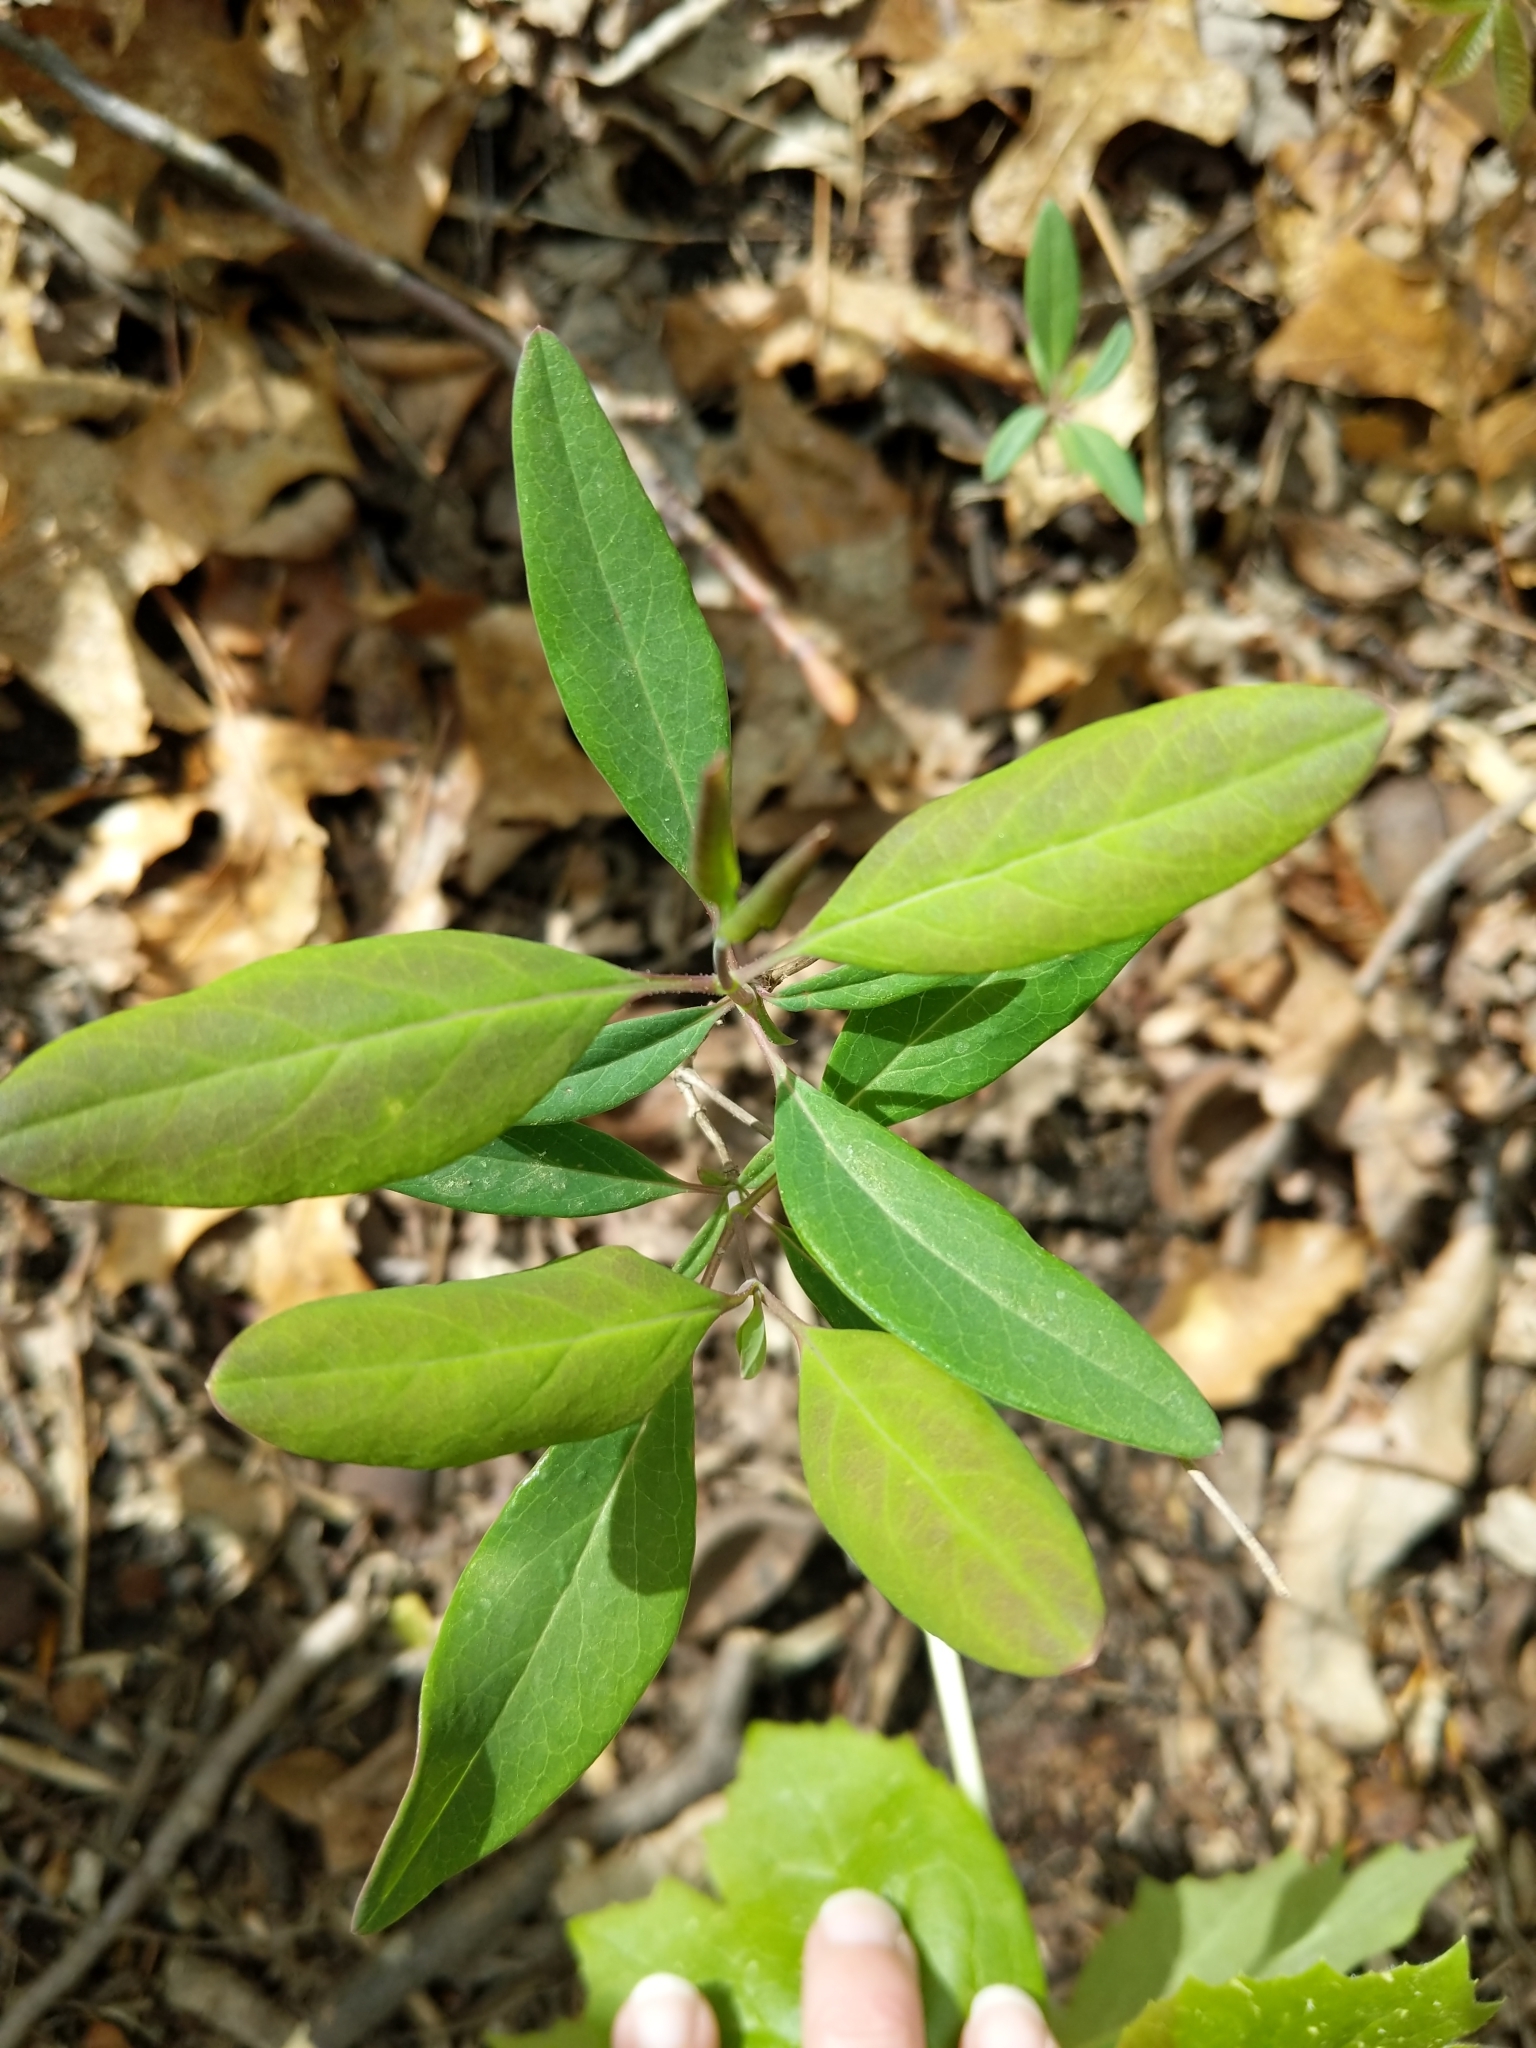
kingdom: Plantae
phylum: Tracheophyta
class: Magnoliopsida
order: Dipsacales
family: Caprifoliaceae
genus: Lonicera
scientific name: Lonicera japonica
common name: Japanese honeysuckle
